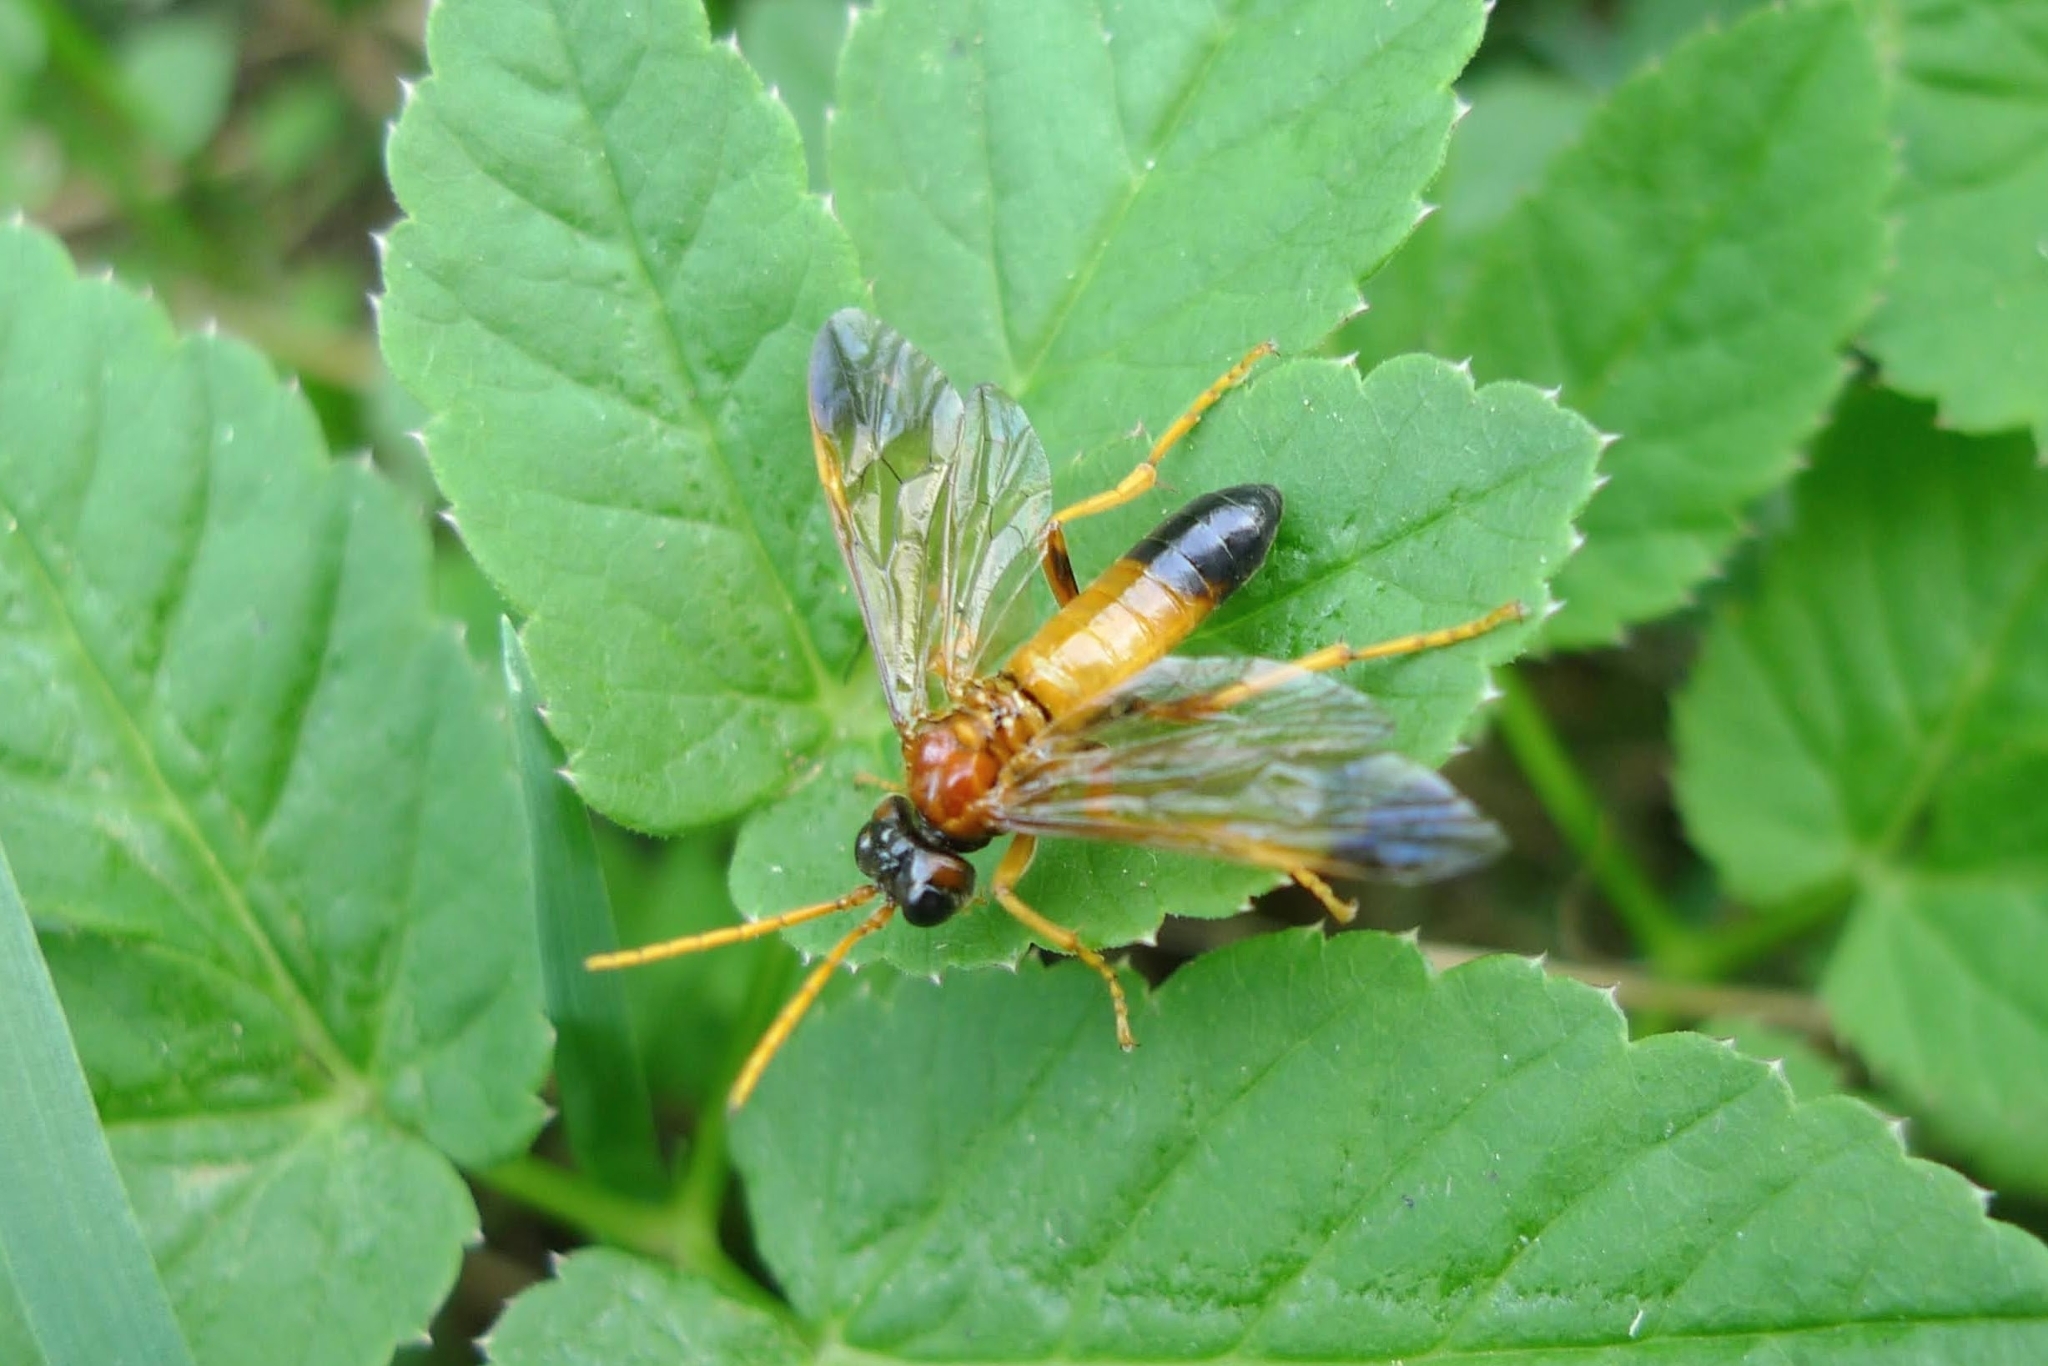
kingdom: Animalia
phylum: Arthropoda
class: Insecta
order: Hymenoptera
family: Tenthredinidae
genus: Tenthredo
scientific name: Tenthredo campestris
